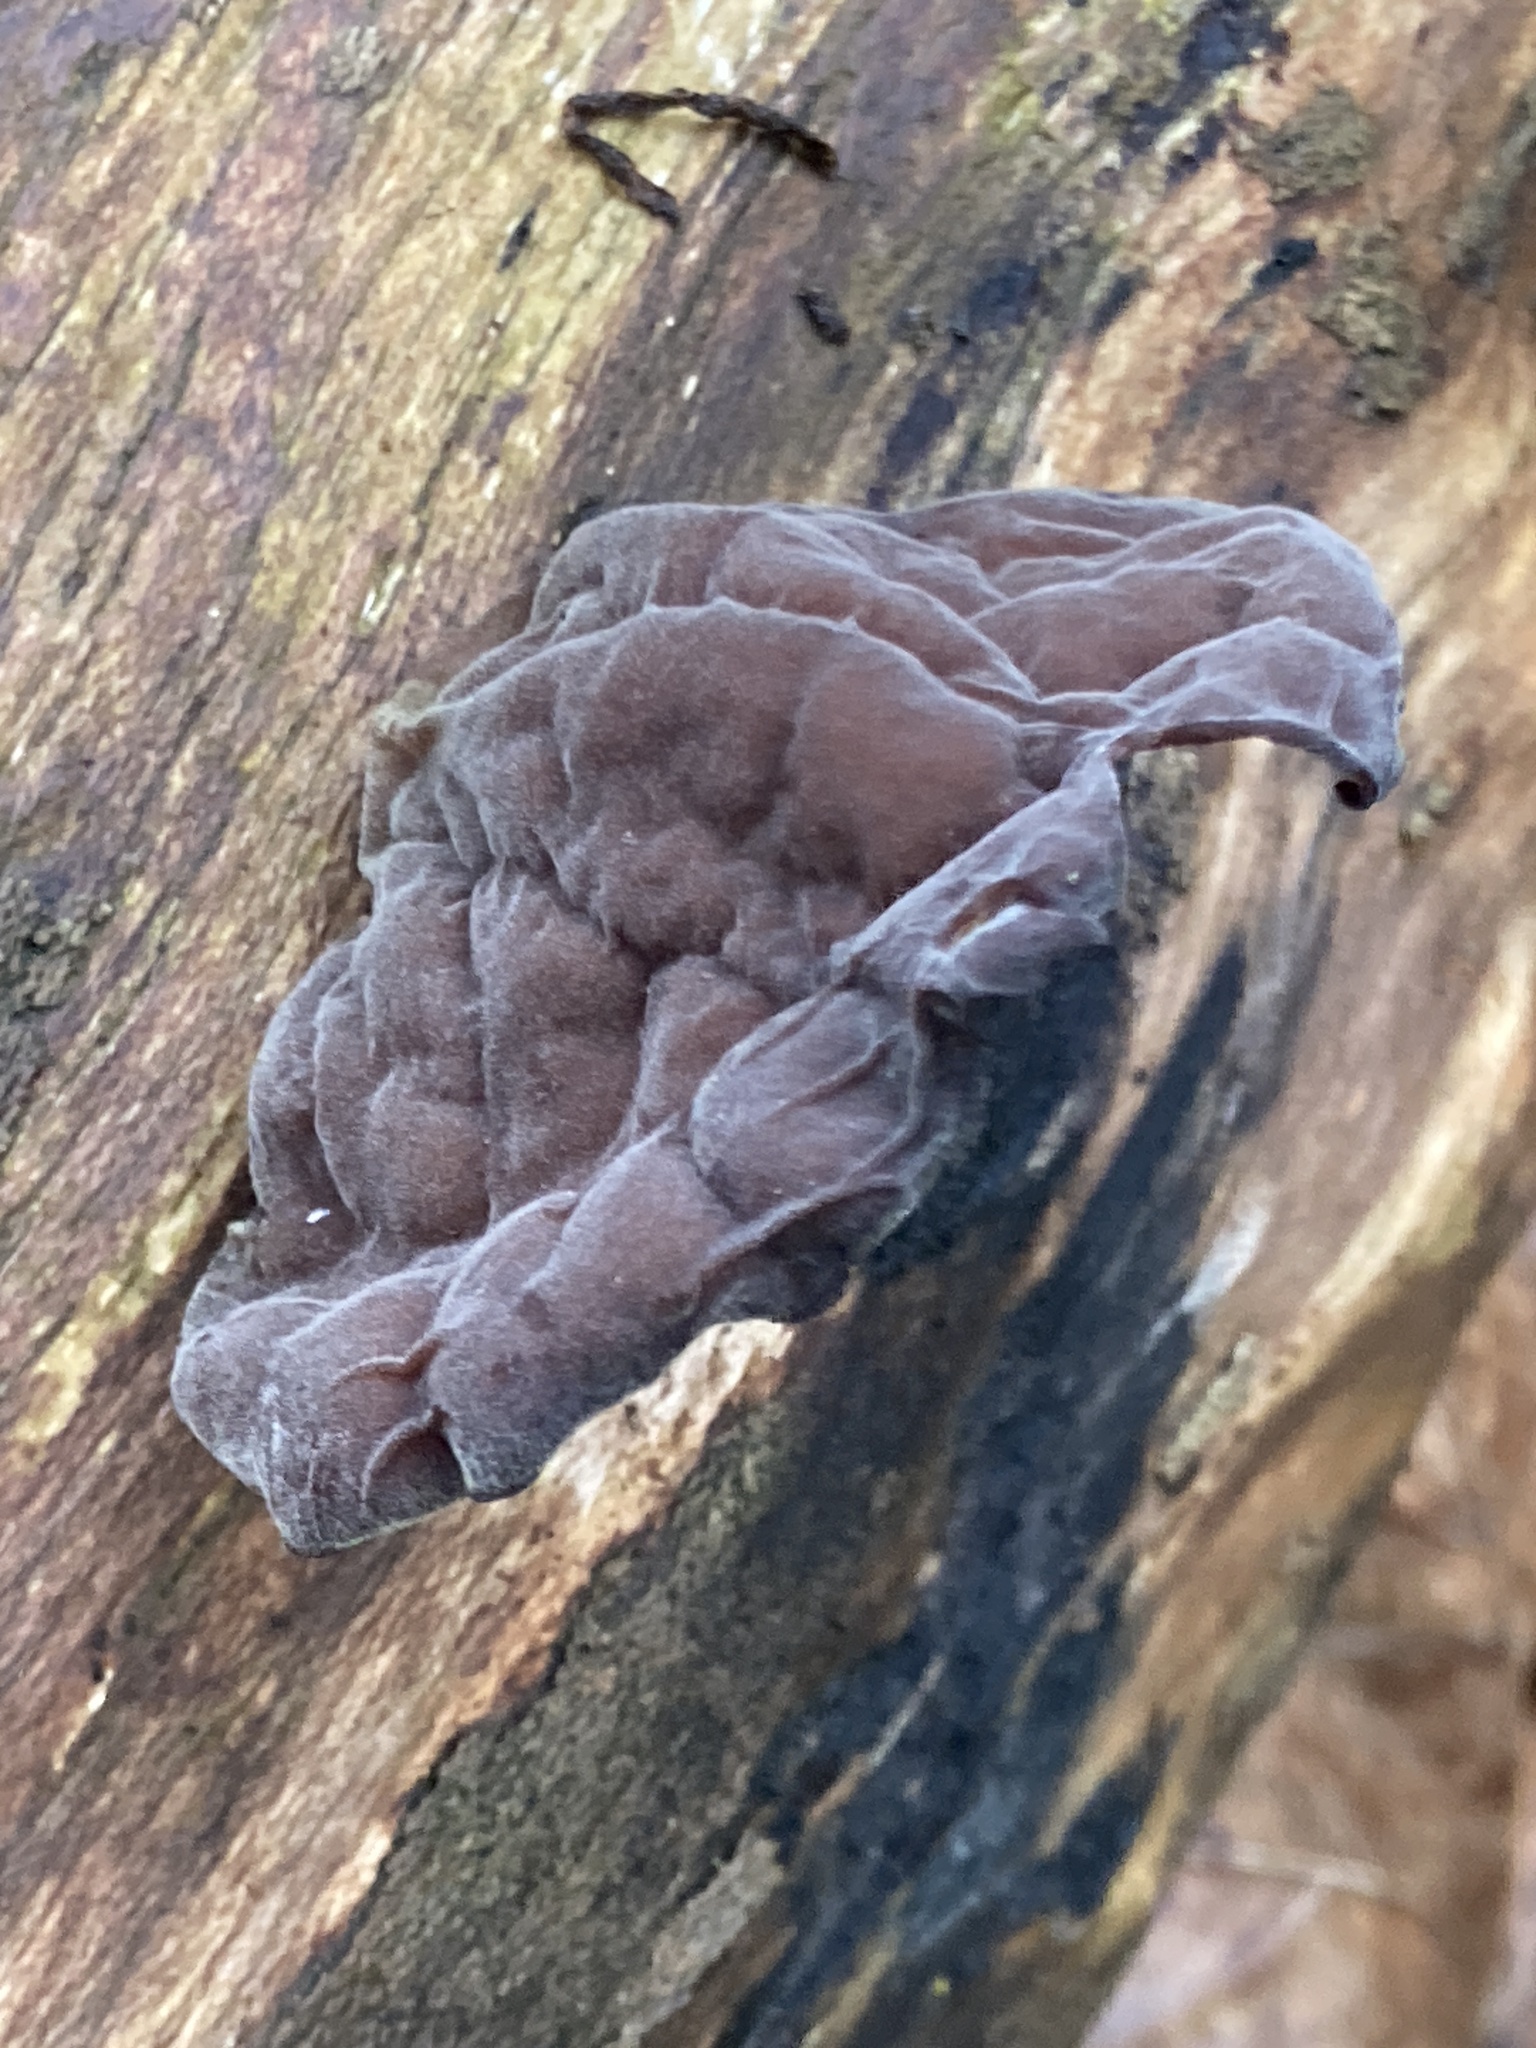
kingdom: Fungi
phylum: Basidiomycota
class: Agaricomycetes
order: Auriculariales
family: Auriculariaceae
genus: Auricularia
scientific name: Auricularia auricula-judae
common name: Jelly ear
